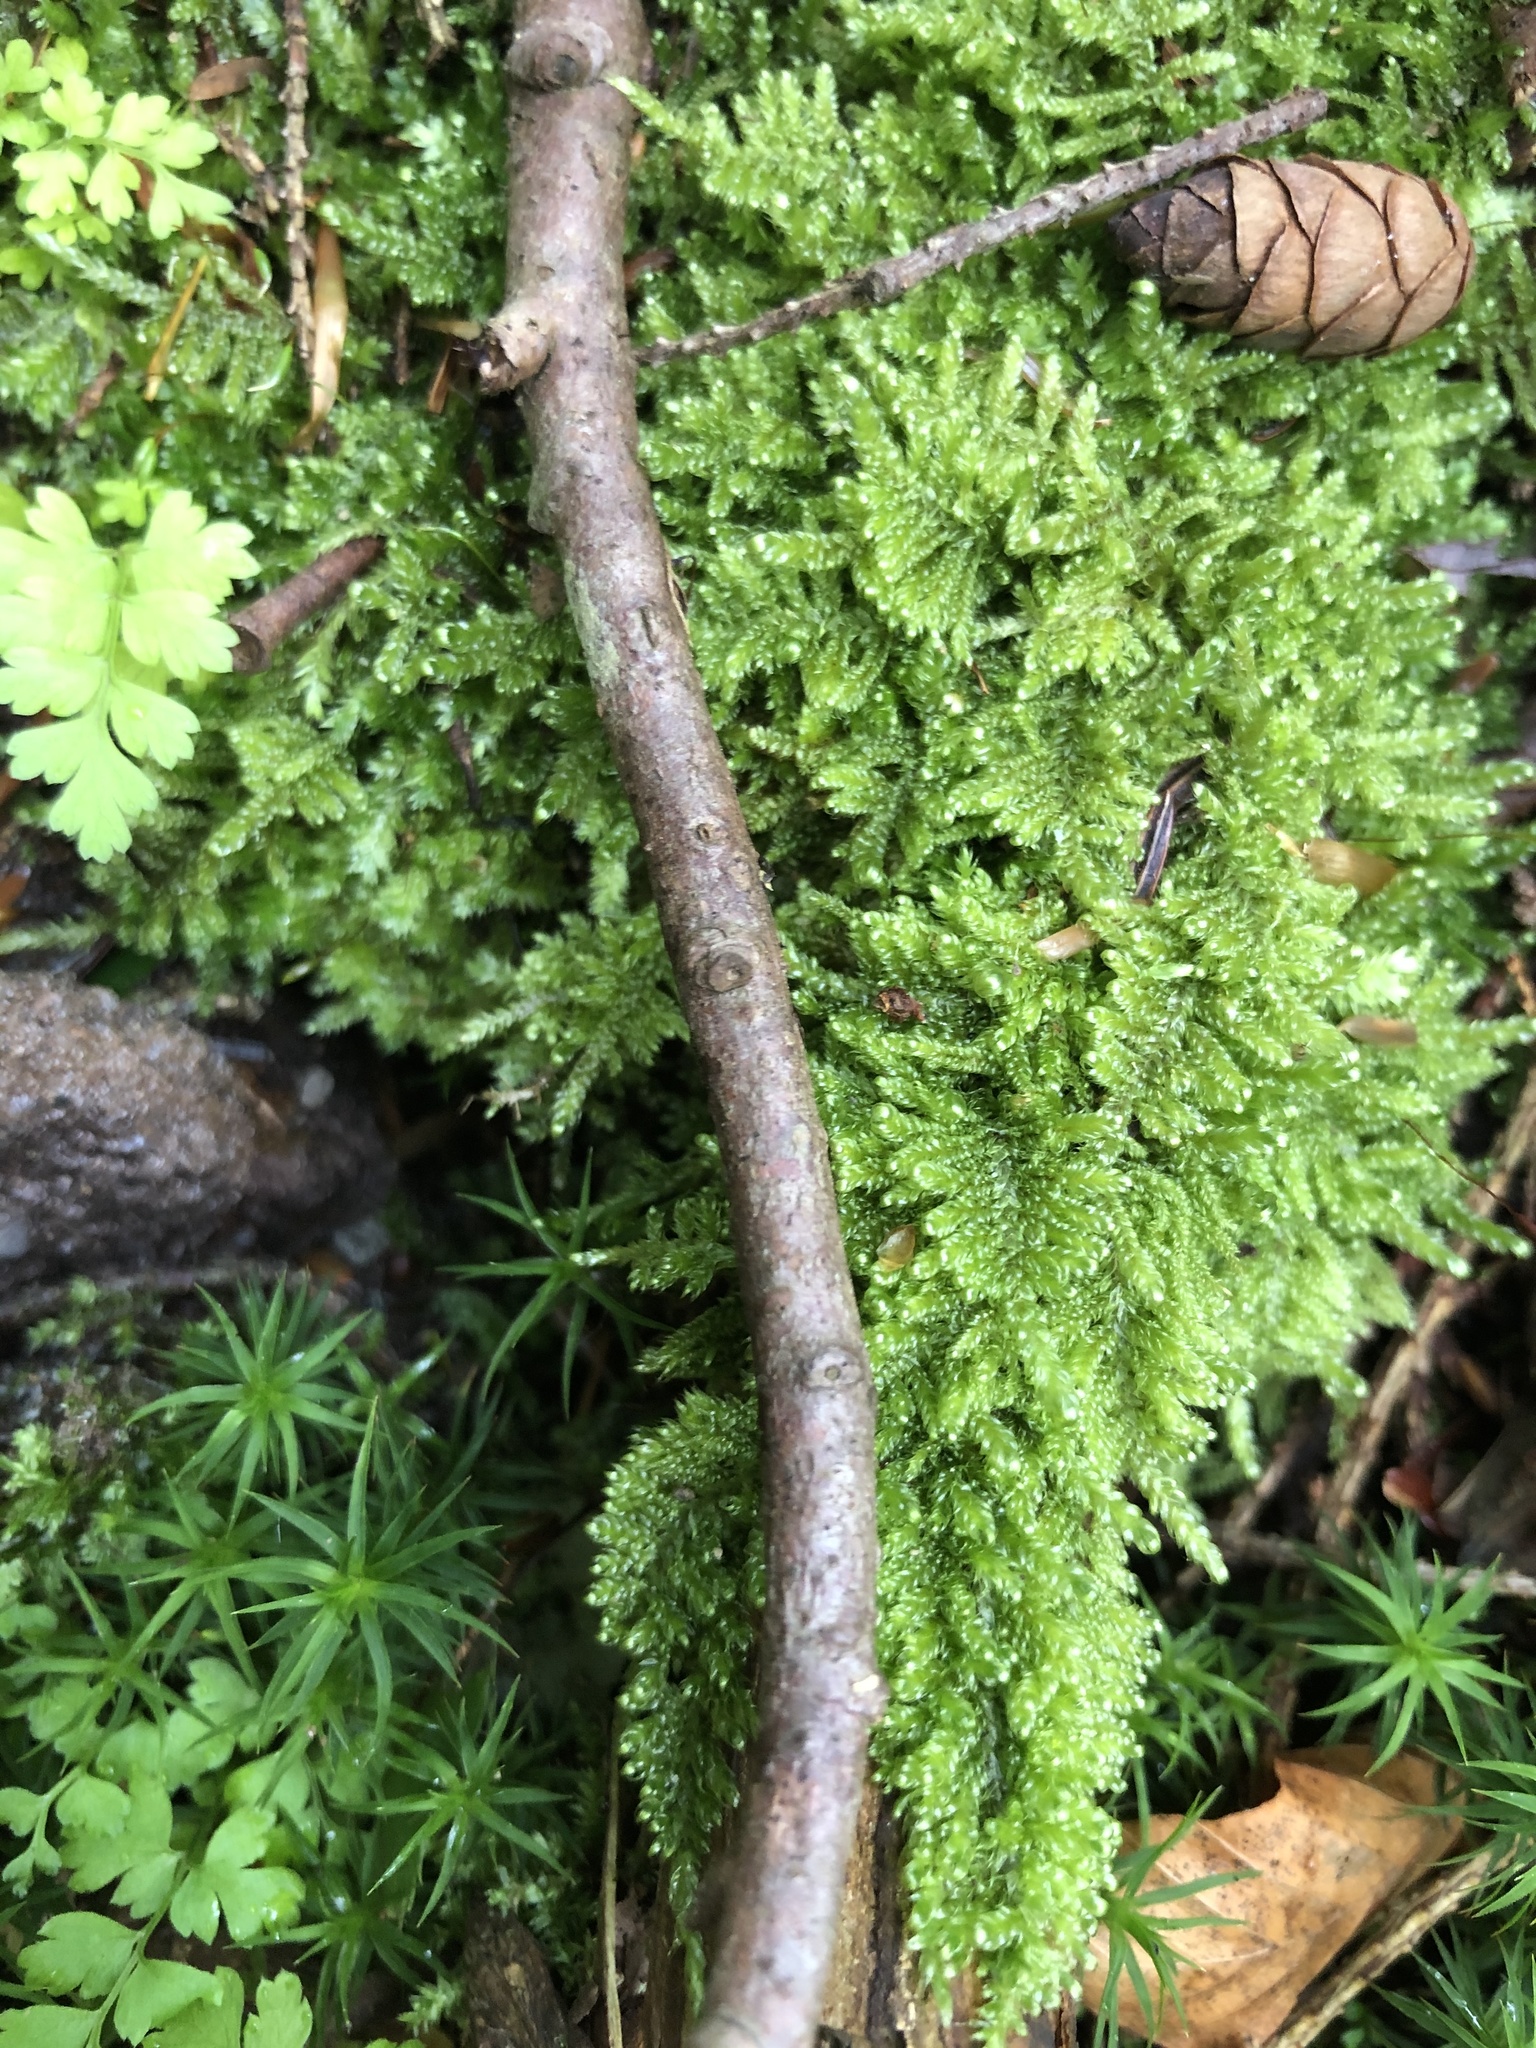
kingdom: Plantae
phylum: Bryophyta
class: Bryopsida
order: Hypnales
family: Callicladiaceae
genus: Callicladium
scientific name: Callicladium imponens
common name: Brocade moss
